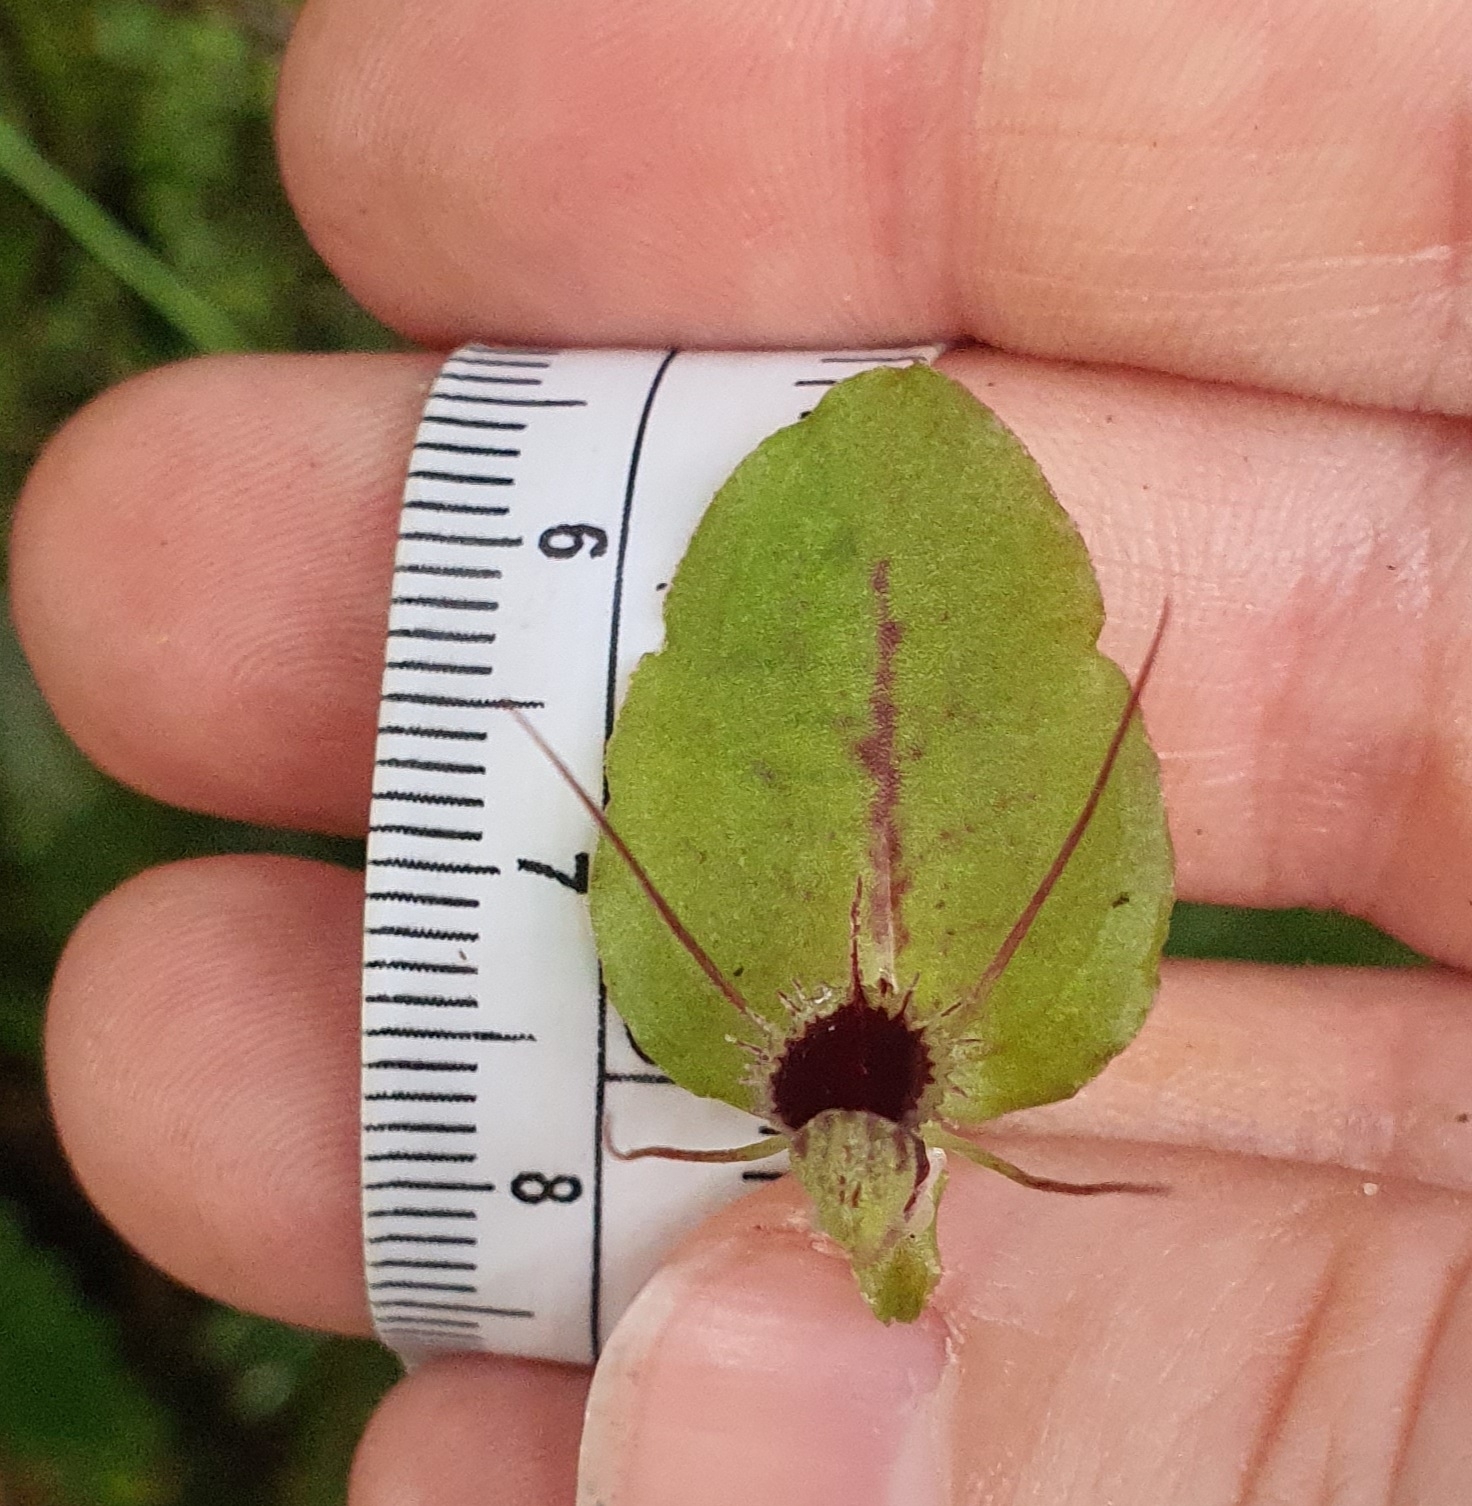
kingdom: Plantae
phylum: Tracheophyta
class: Liliopsida
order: Asparagales
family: Orchidaceae
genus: Corybas
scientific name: Corybas oblongus
